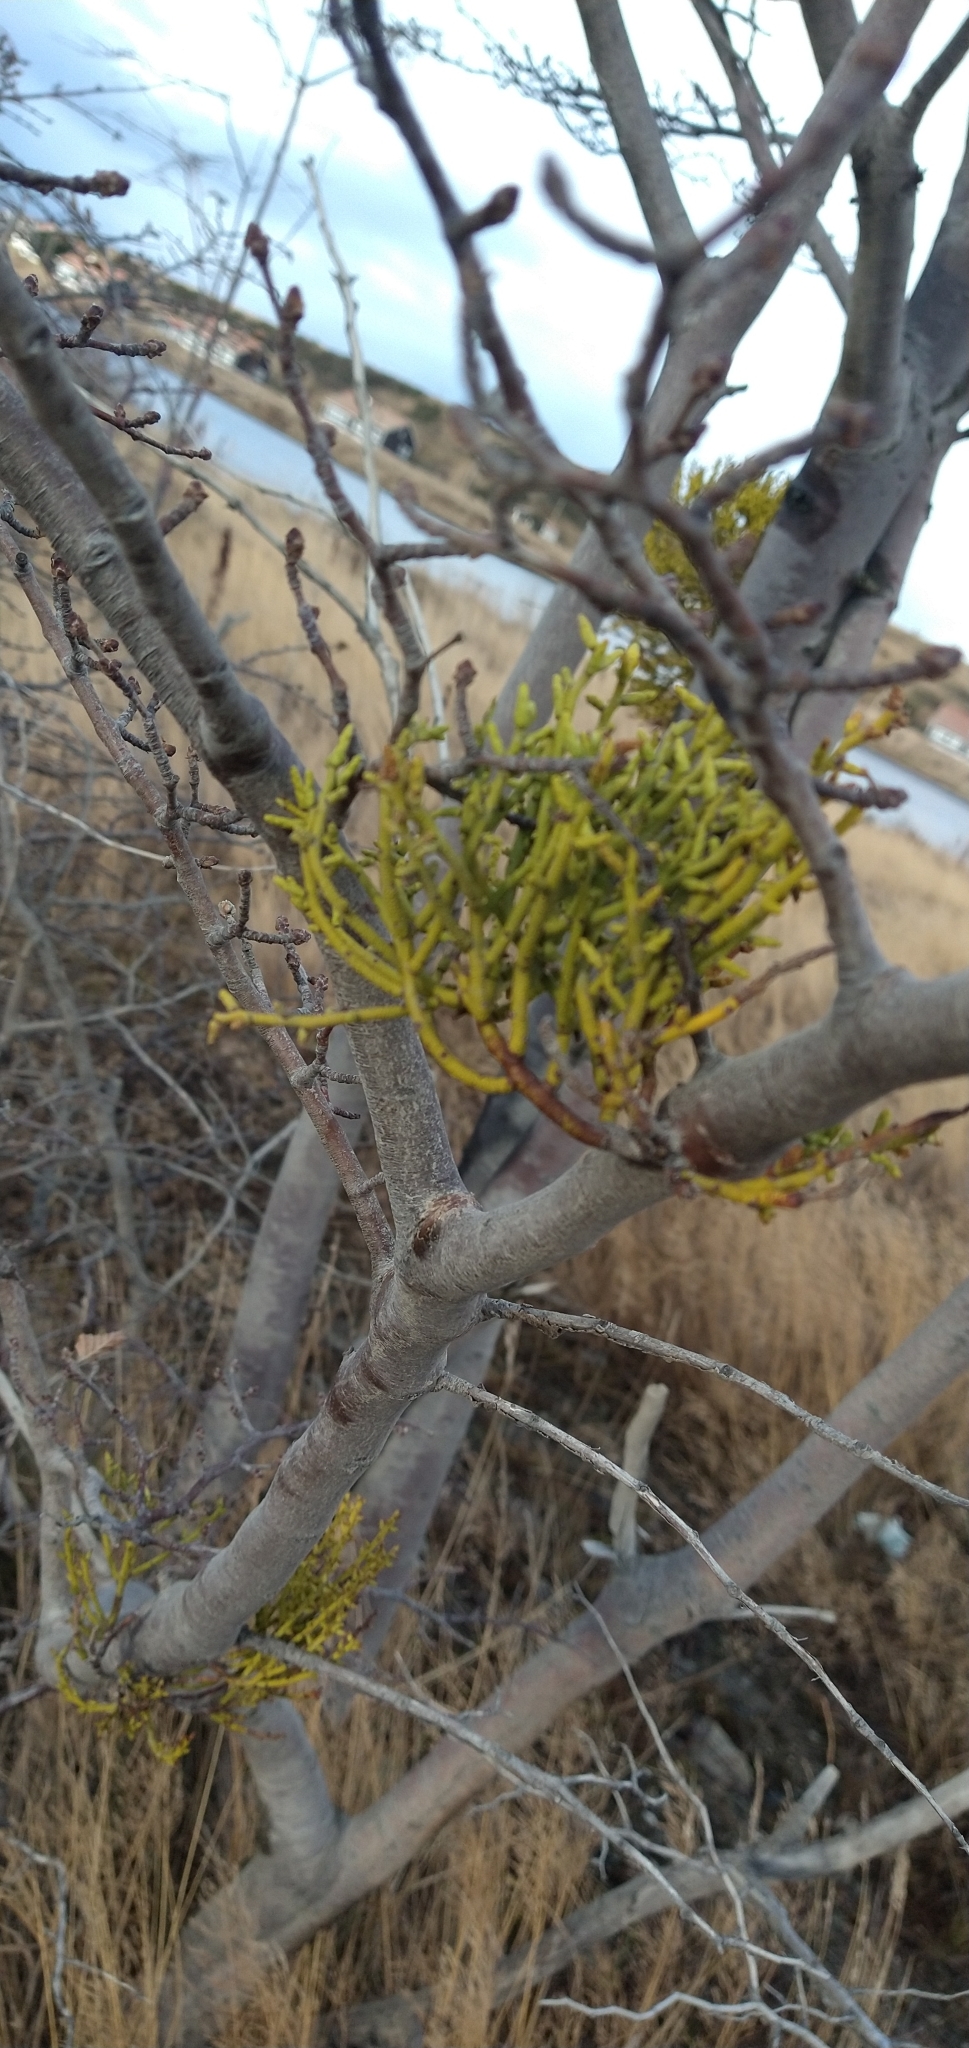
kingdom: Plantae
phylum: Tracheophyta
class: Magnoliopsida
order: Santalales
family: Misodendraceae
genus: Misodendrum
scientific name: Misodendrum punctulatum
